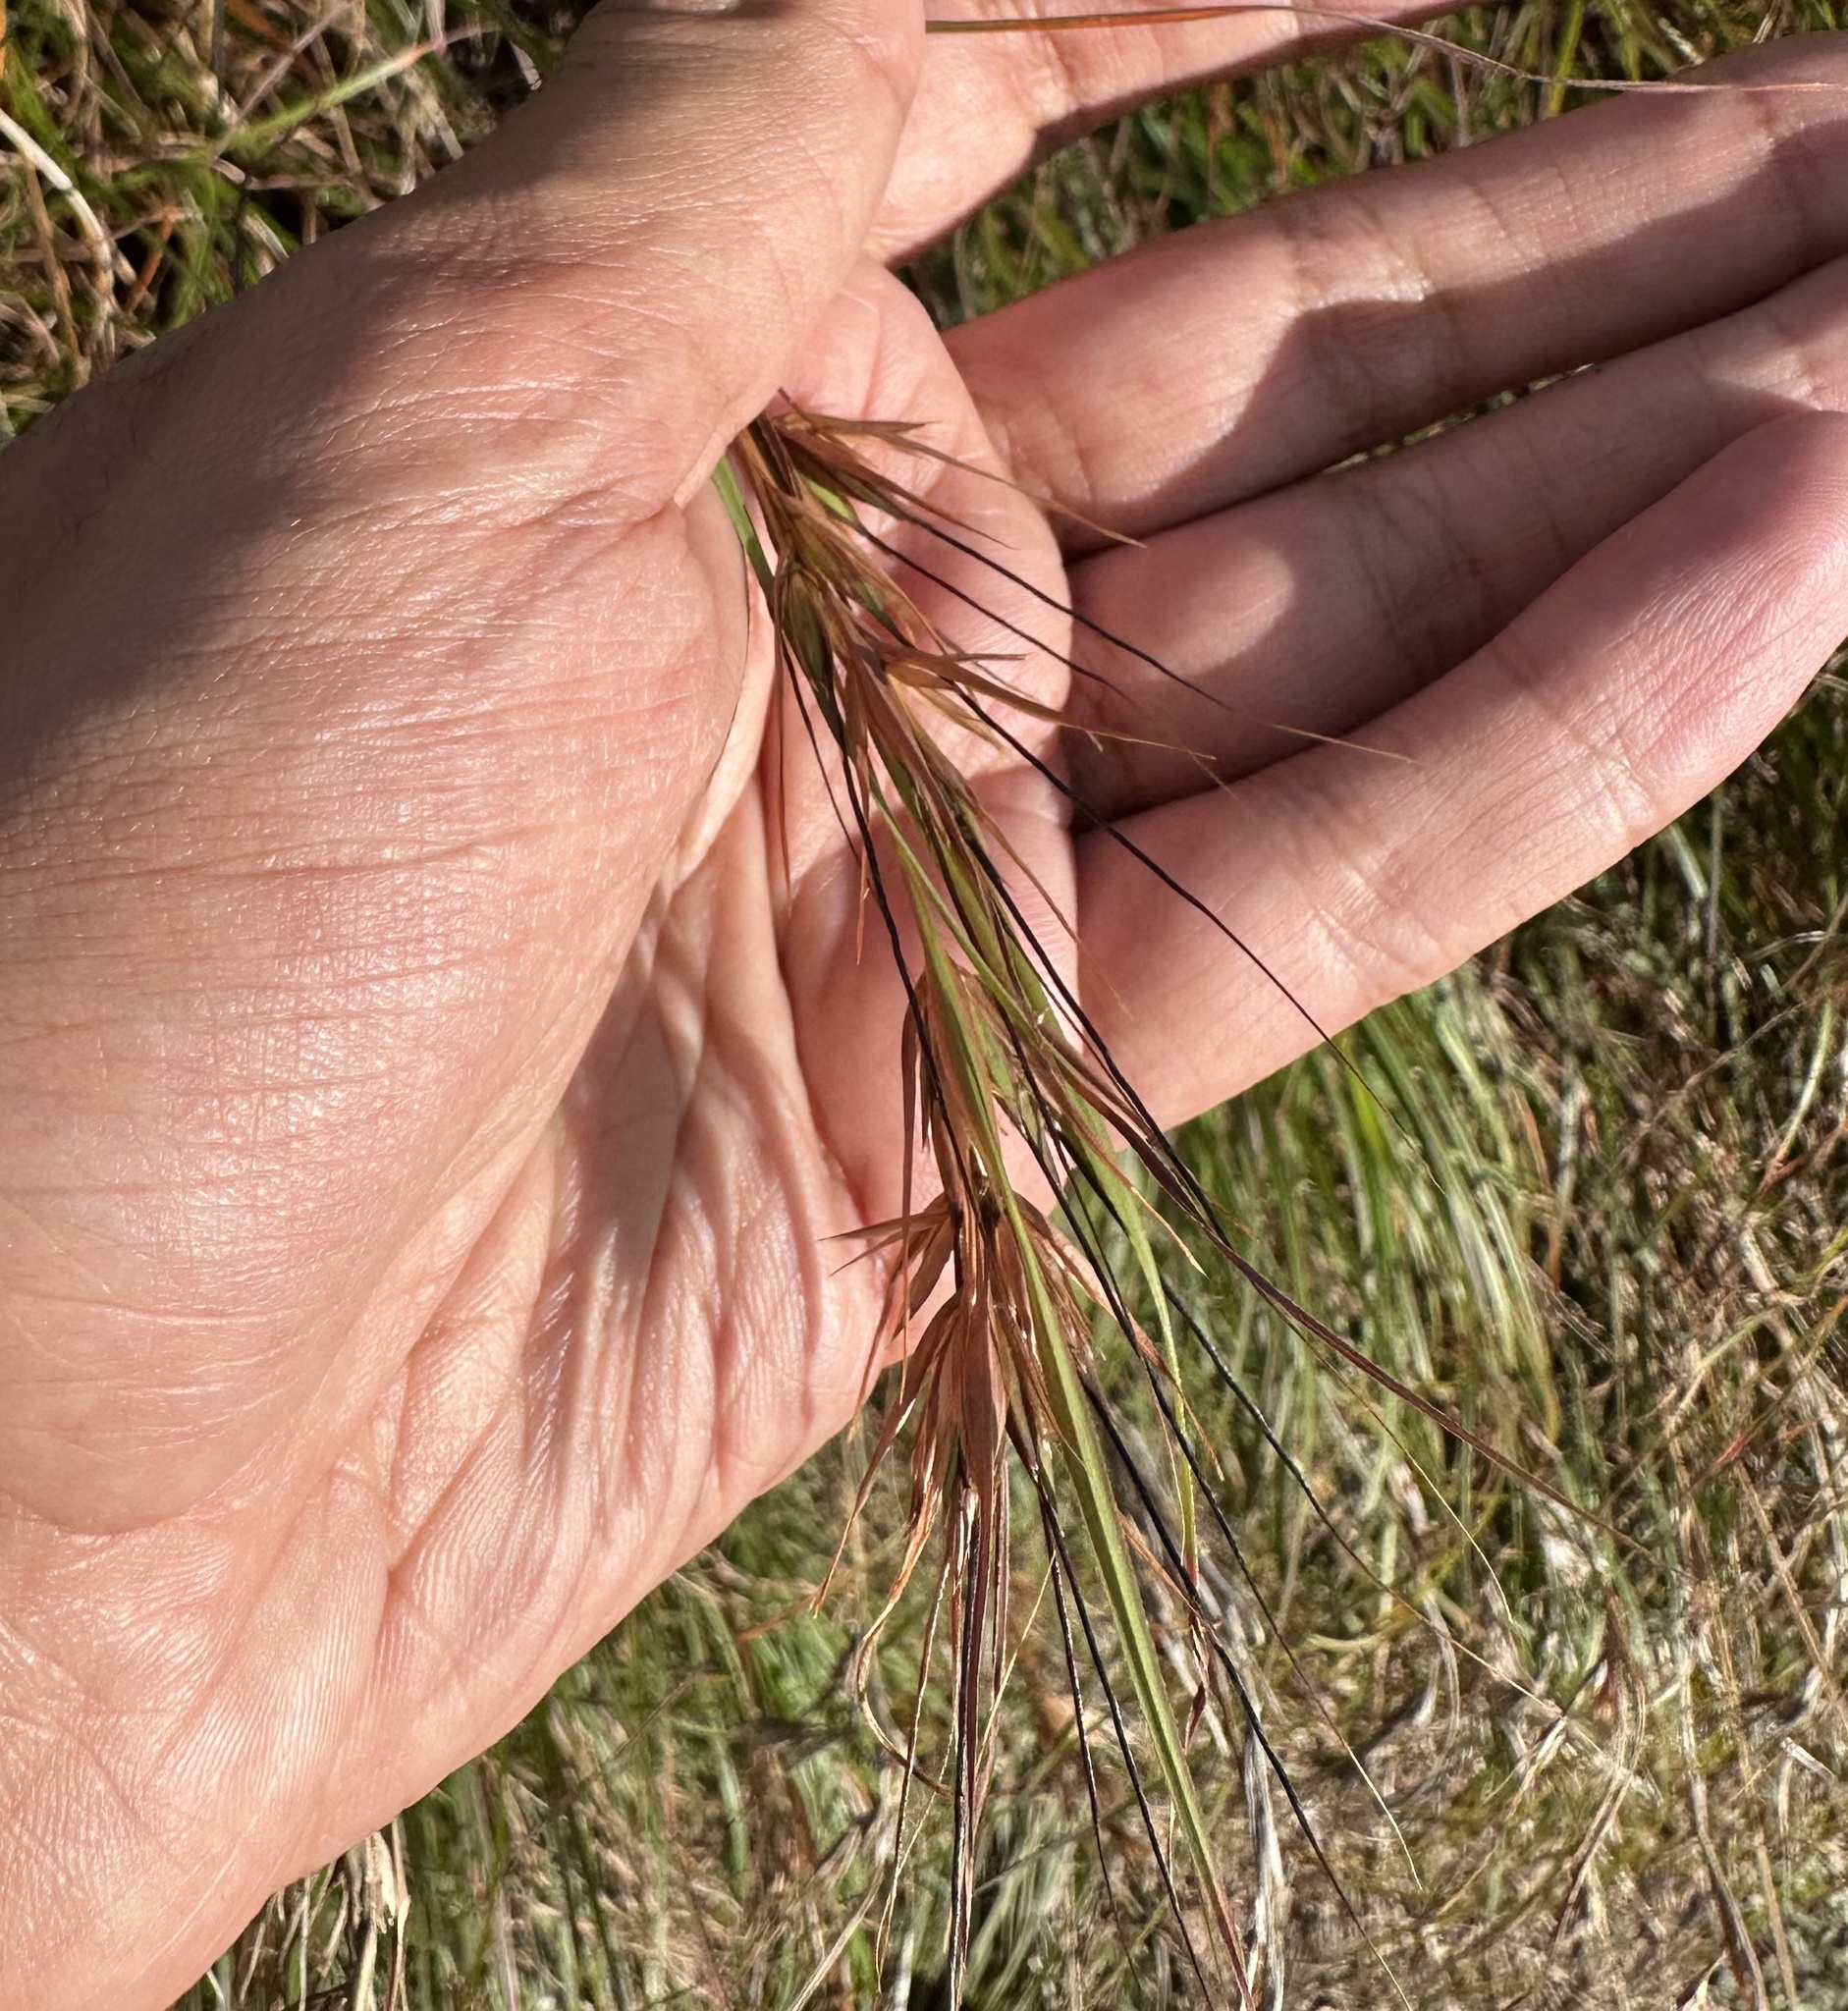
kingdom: Plantae
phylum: Tracheophyta
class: Liliopsida
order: Poales
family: Poaceae
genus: Themeda
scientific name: Themeda triandra
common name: Kangaroo grass
